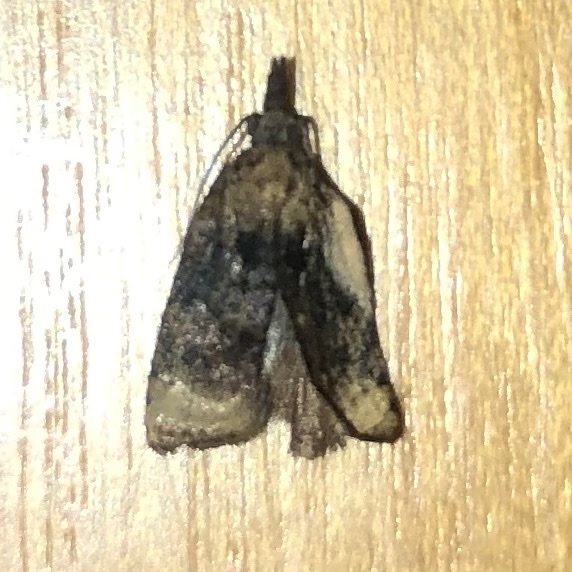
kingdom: Animalia
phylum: Arthropoda
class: Insecta
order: Lepidoptera
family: Tortricidae
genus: Platynota
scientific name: Platynota flavedana
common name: Black-shaded platynota moth
